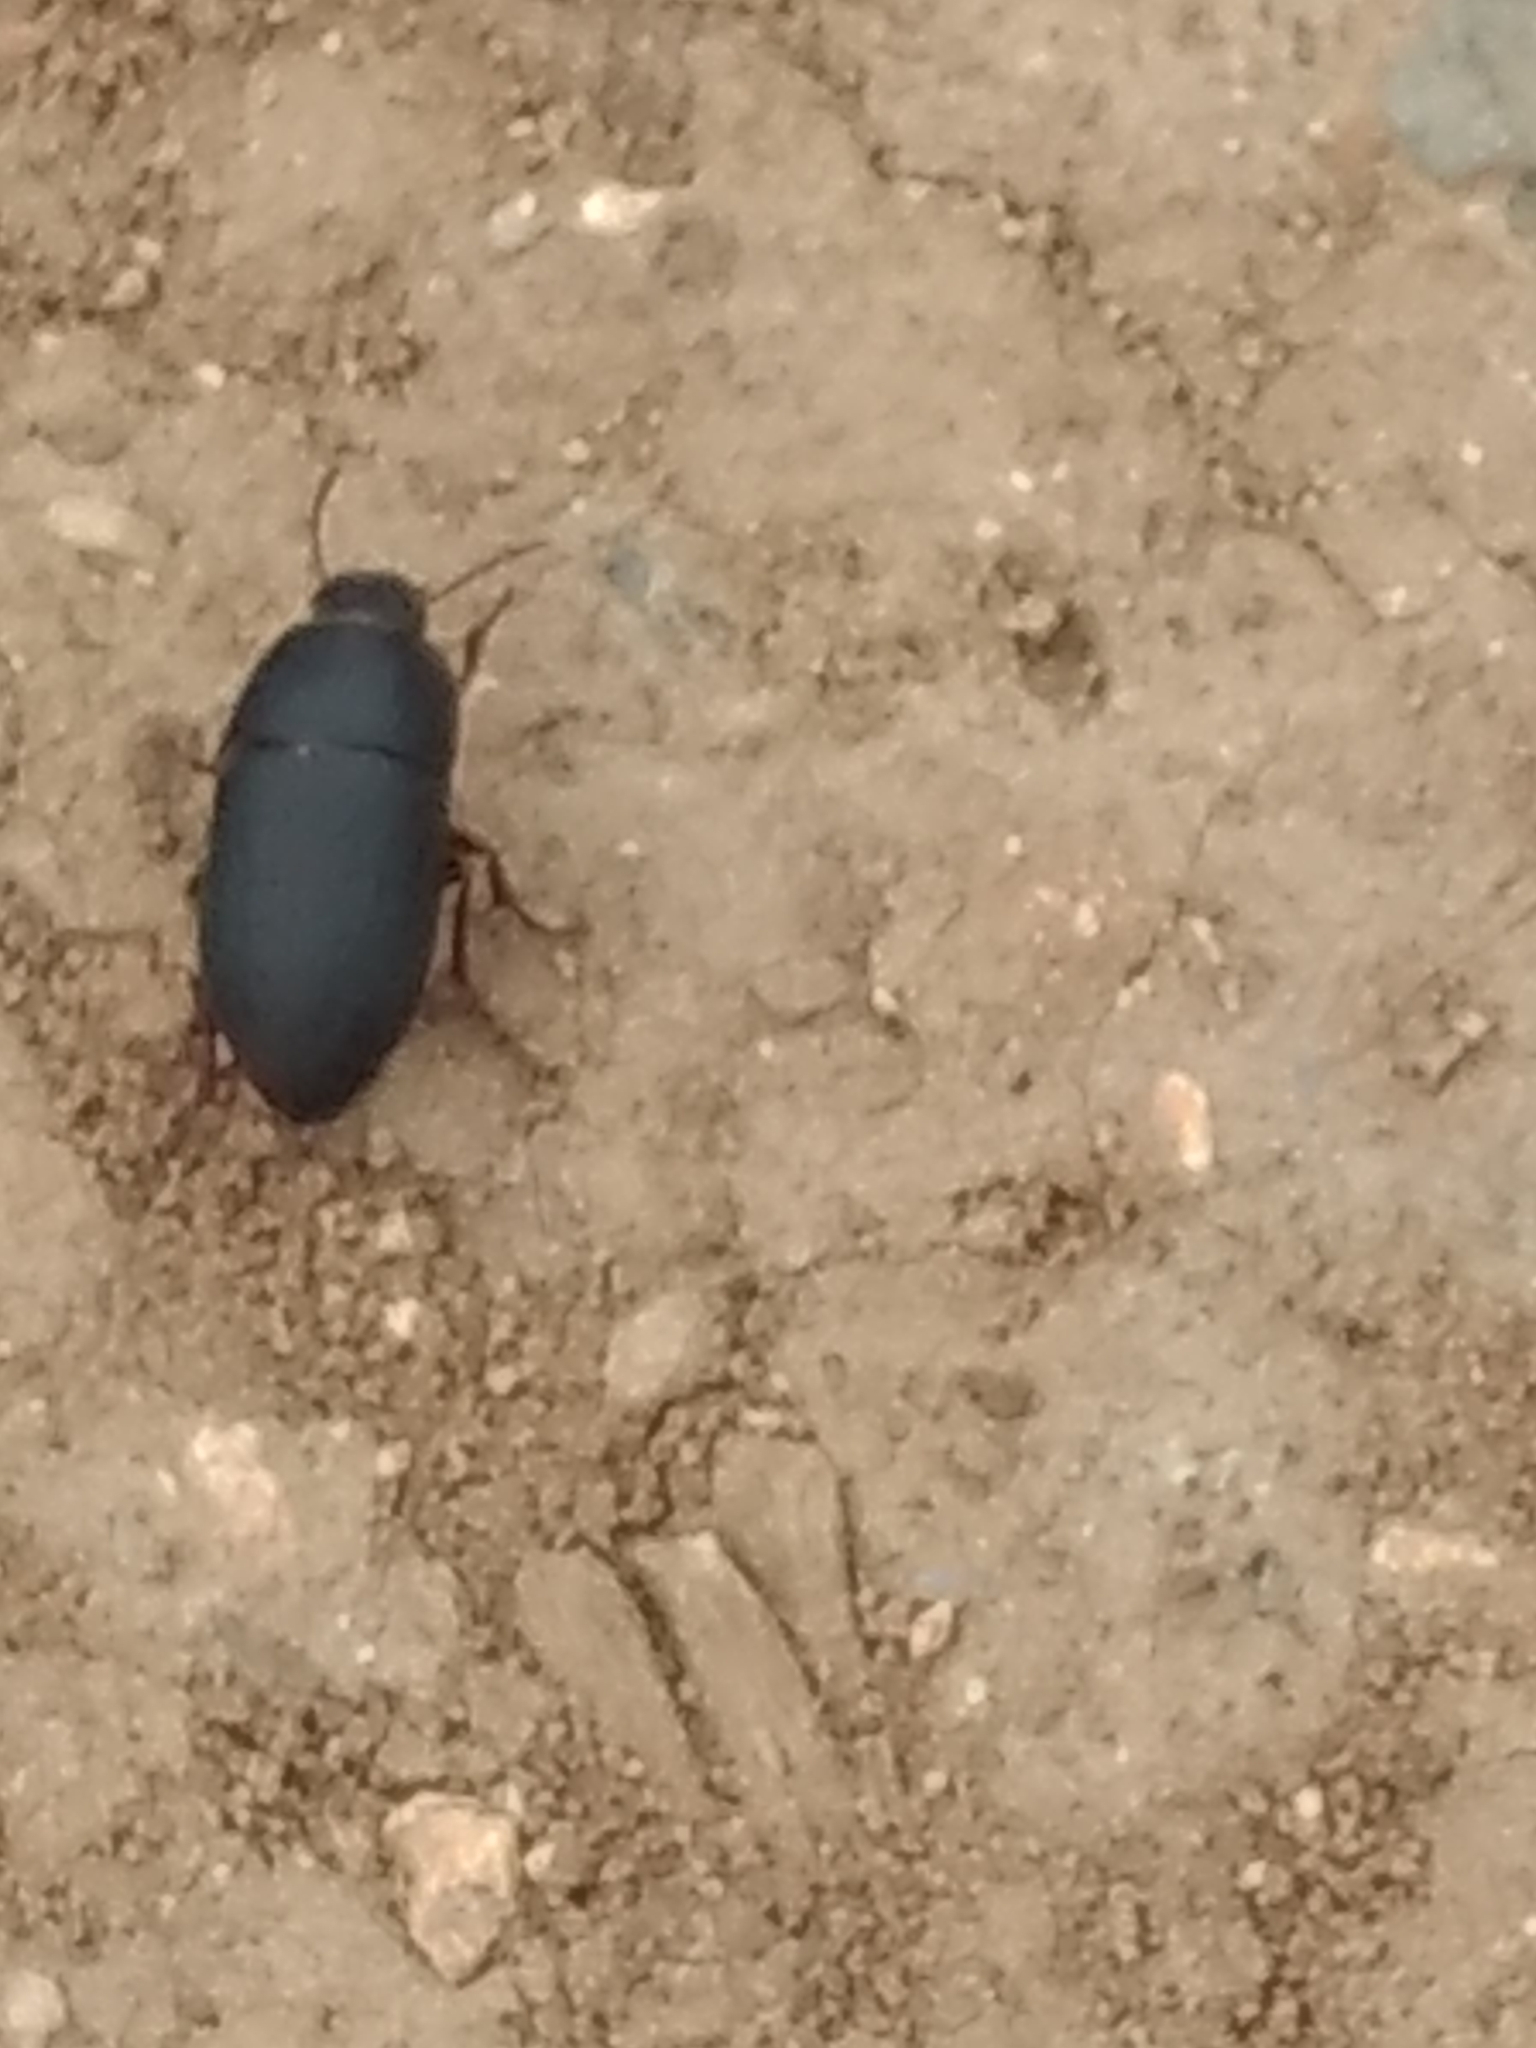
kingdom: Animalia
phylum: Arthropoda
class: Insecta
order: Coleoptera
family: Tenebrionidae
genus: Coniontis
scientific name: Coniontis
